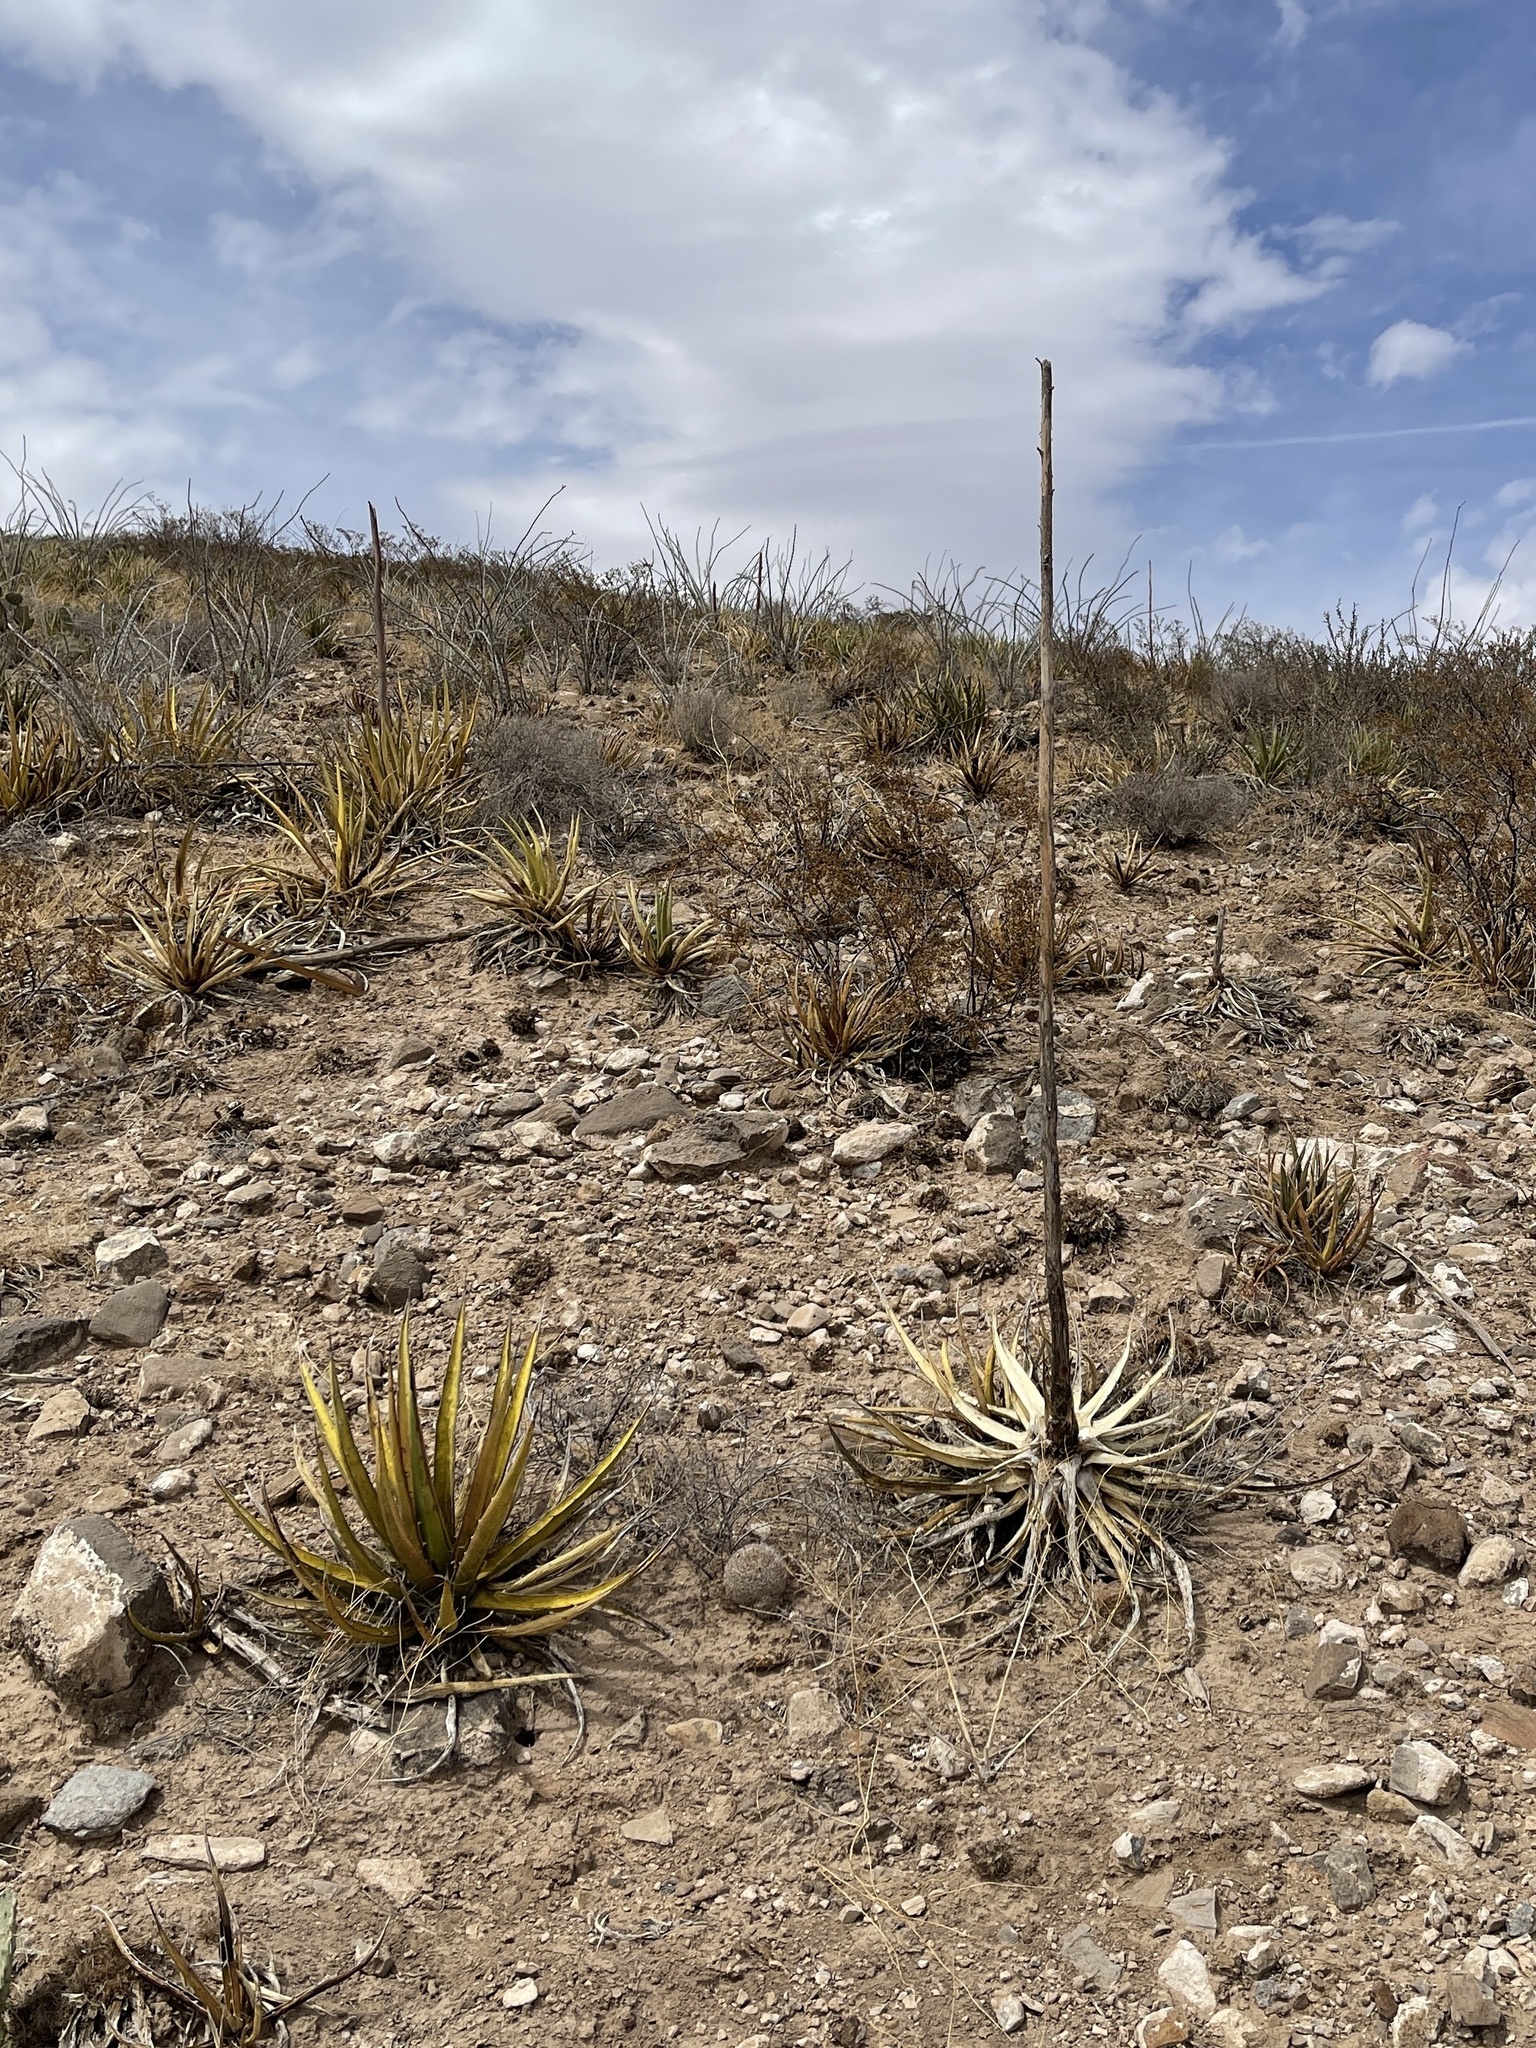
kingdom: Plantae
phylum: Tracheophyta
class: Liliopsida
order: Asparagales
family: Asparagaceae
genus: Agave
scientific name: Agave lechuguilla
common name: Lecheguilla agave
